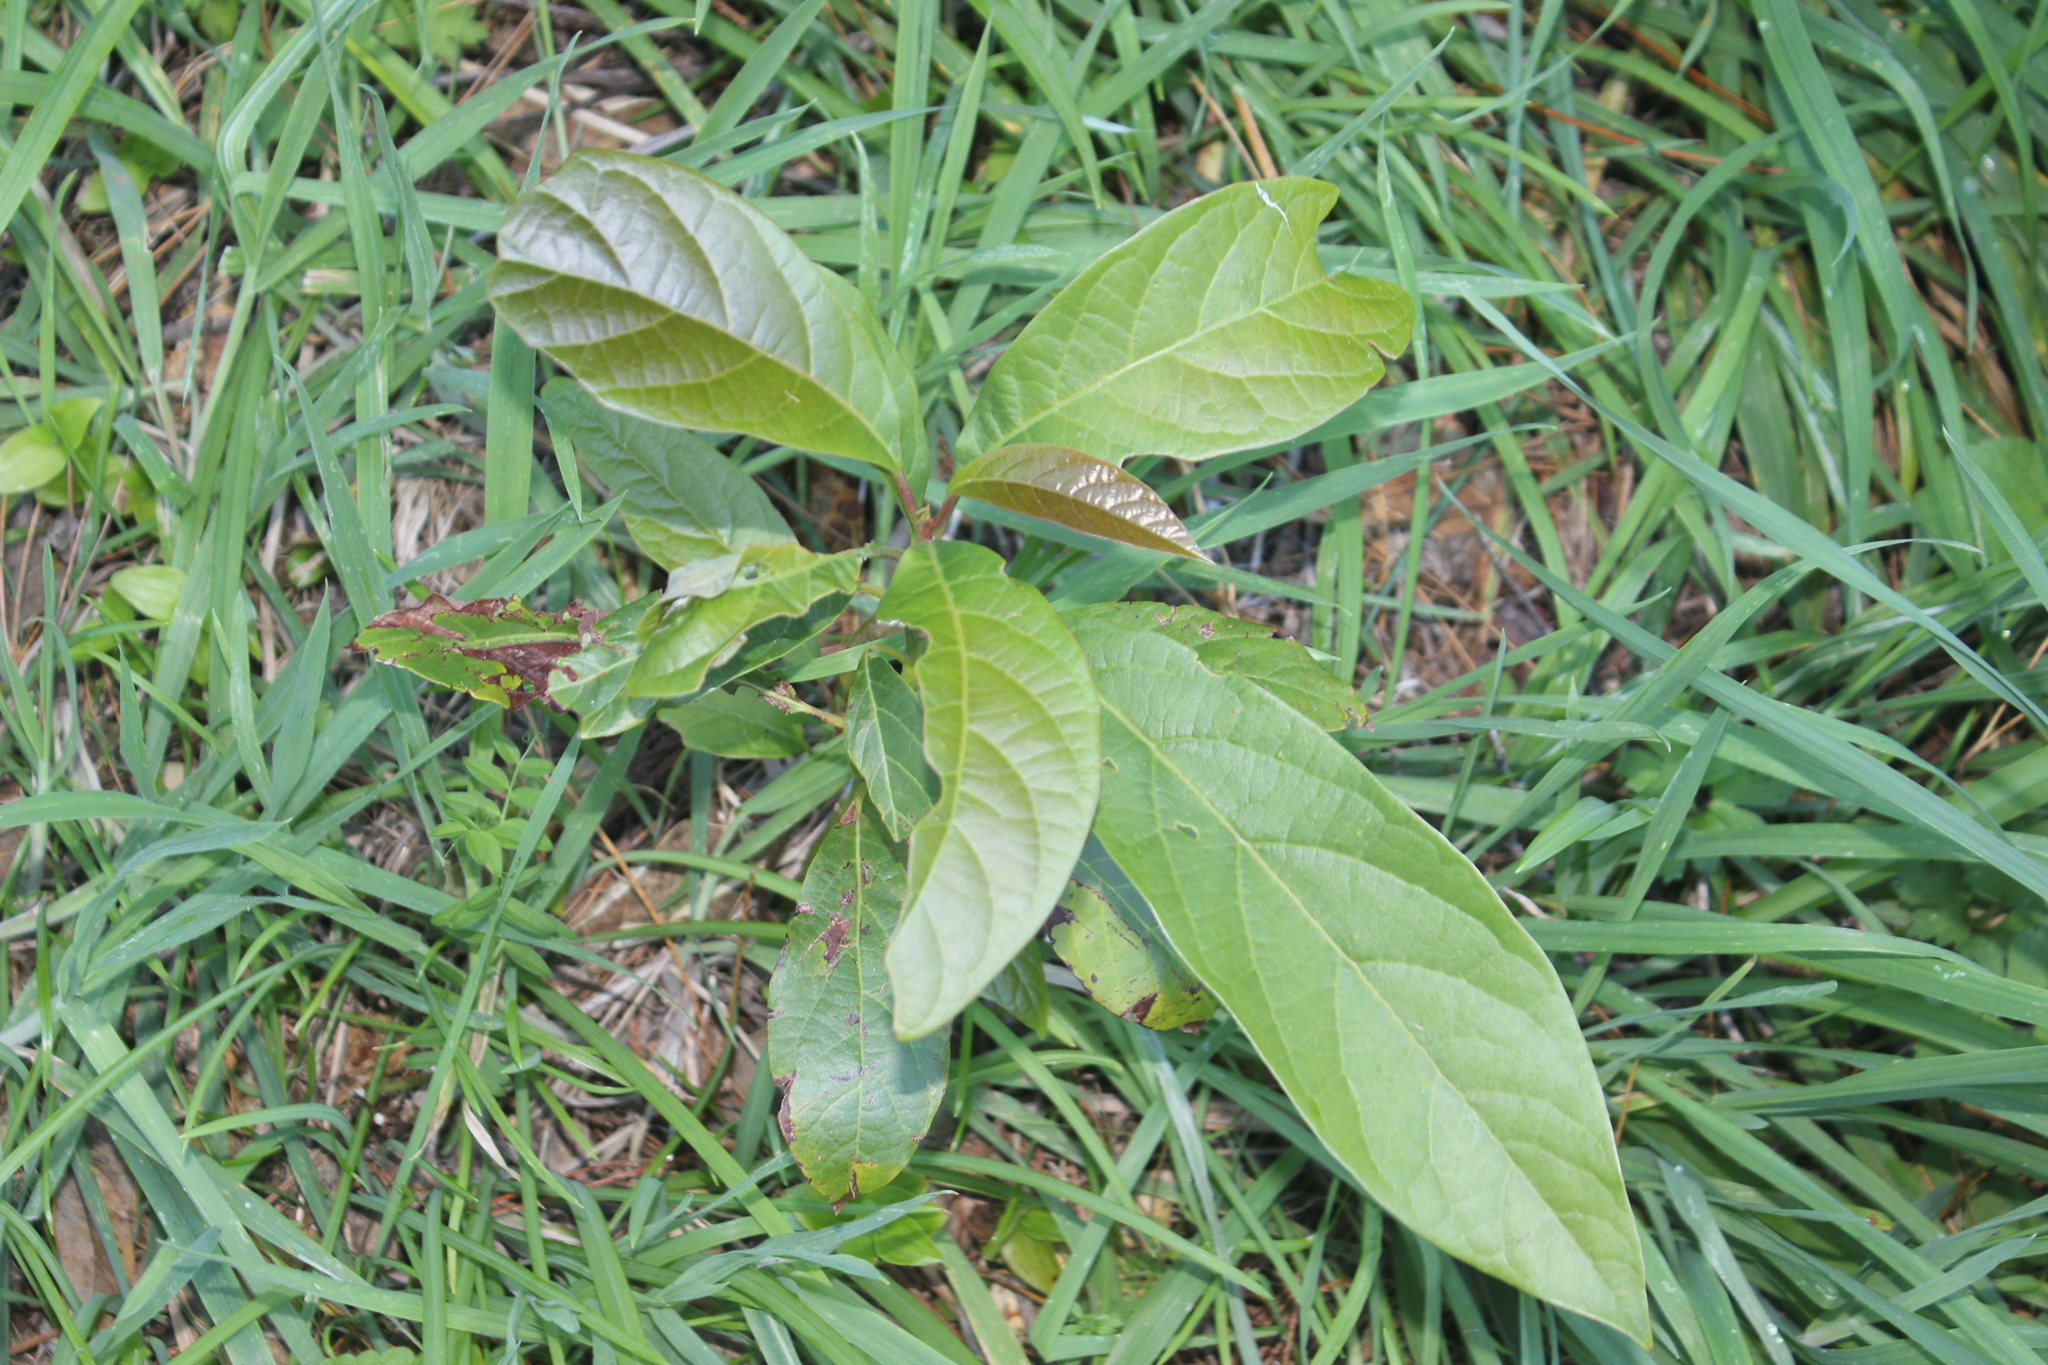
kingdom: Plantae
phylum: Tracheophyta
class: Magnoliopsida
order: Laurales
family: Lauraceae
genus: Persea
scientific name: Persea americana
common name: Avocado
